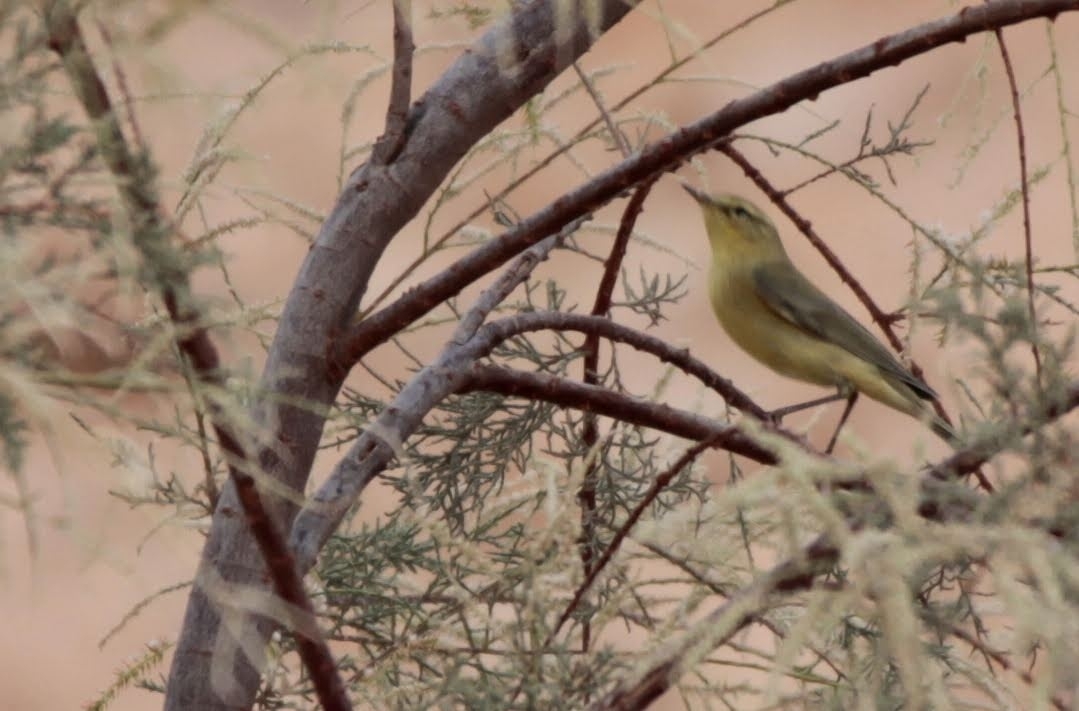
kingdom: Animalia
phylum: Chordata
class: Aves
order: Passeriformes
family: Acrocephalidae
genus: Hippolais
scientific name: Hippolais icterina
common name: Icterine warbler
